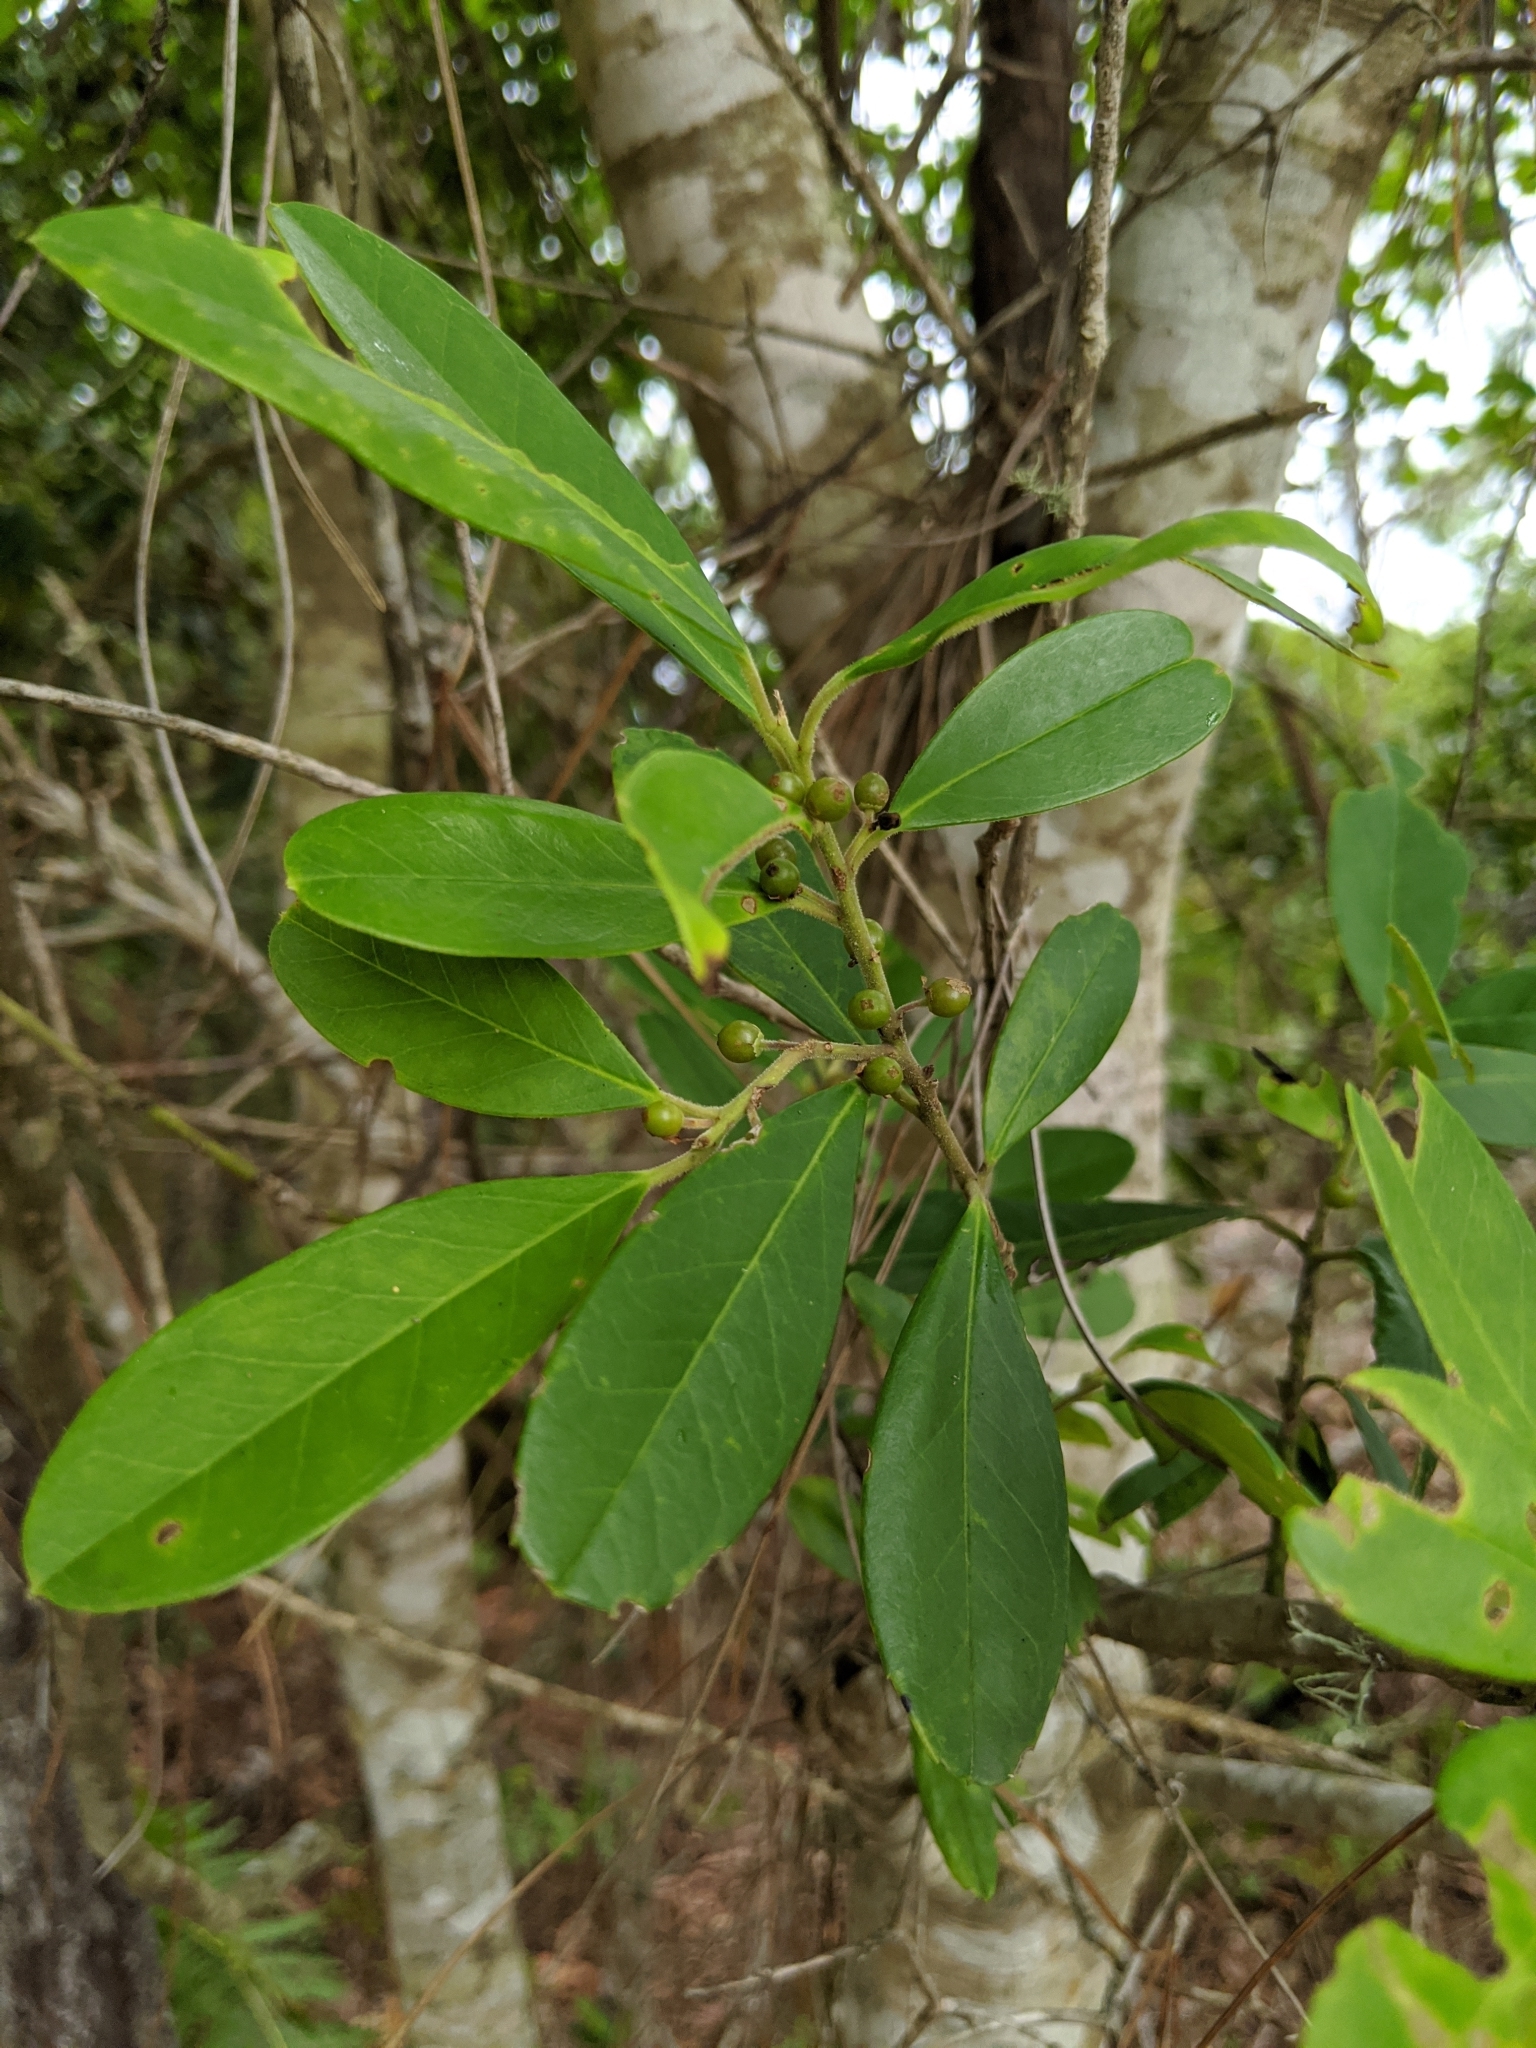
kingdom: Plantae
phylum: Tracheophyta
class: Magnoliopsida
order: Aquifoliales
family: Aquifoliaceae
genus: Ilex
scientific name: Ilex cassine
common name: Dahoon
